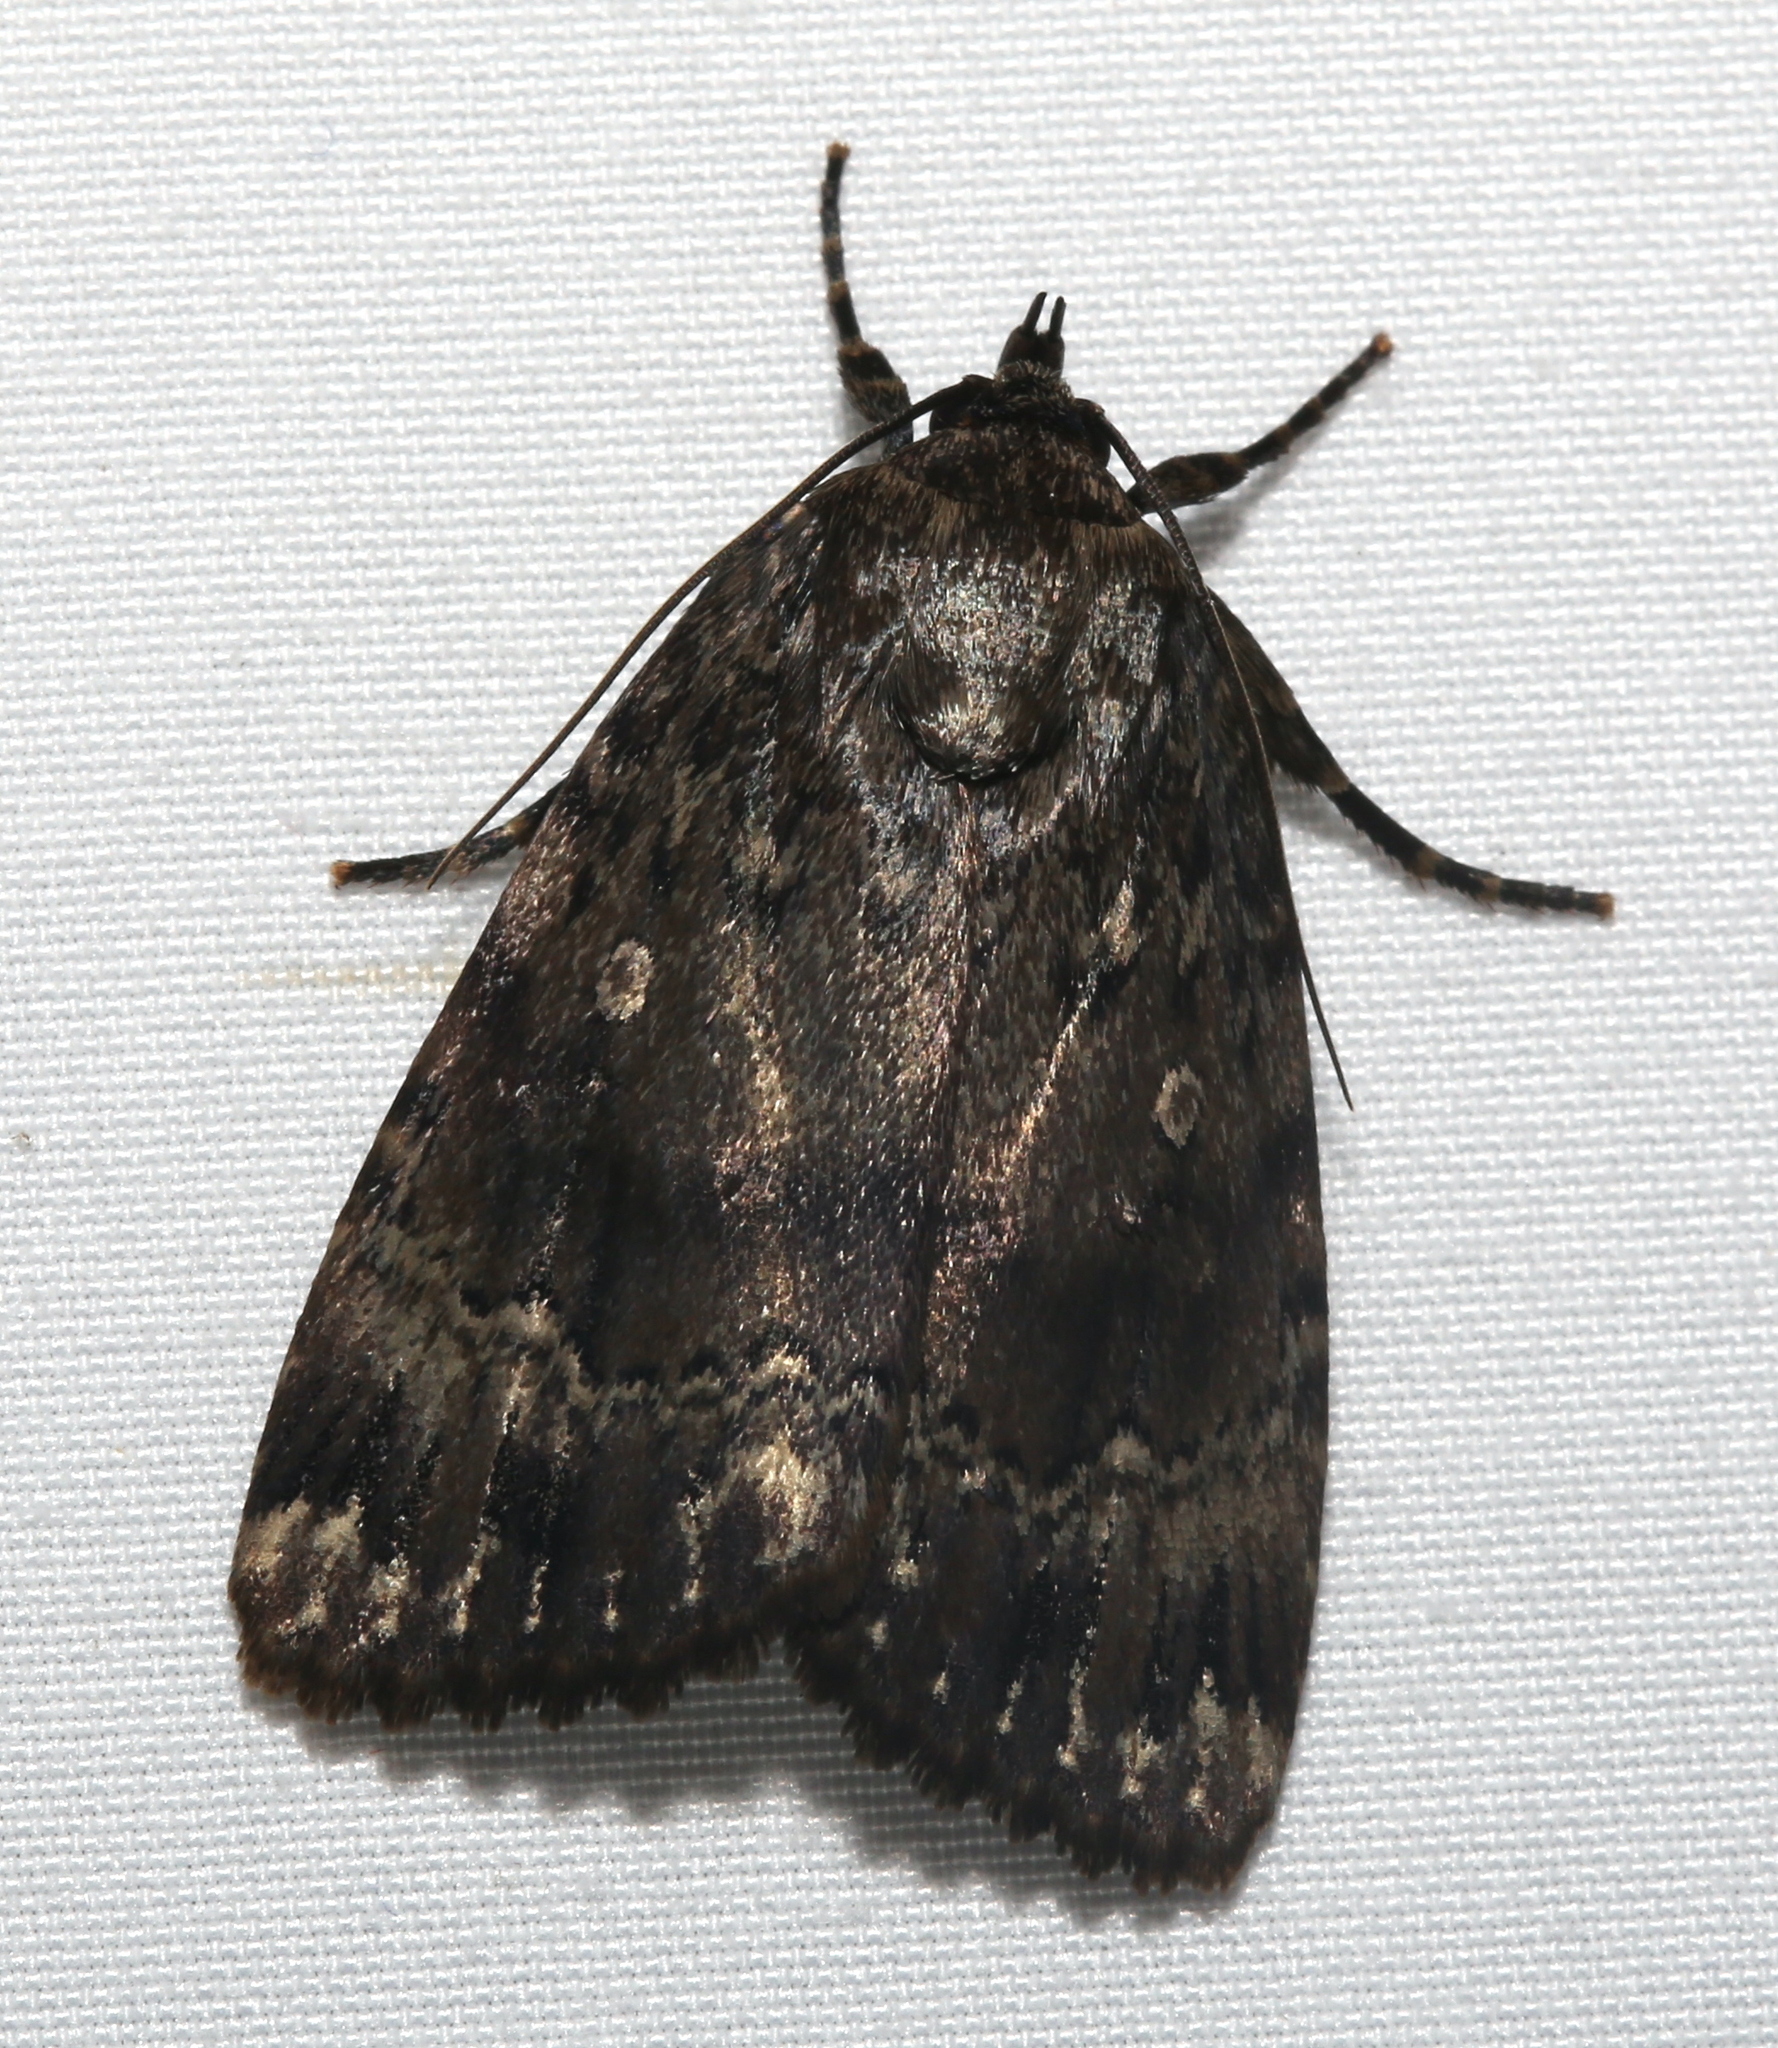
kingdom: Animalia
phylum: Arthropoda
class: Insecta
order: Lepidoptera
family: Noctuidae
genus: Amphipyra
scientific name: Amphipyra pyramidoides
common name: American copper underwing
